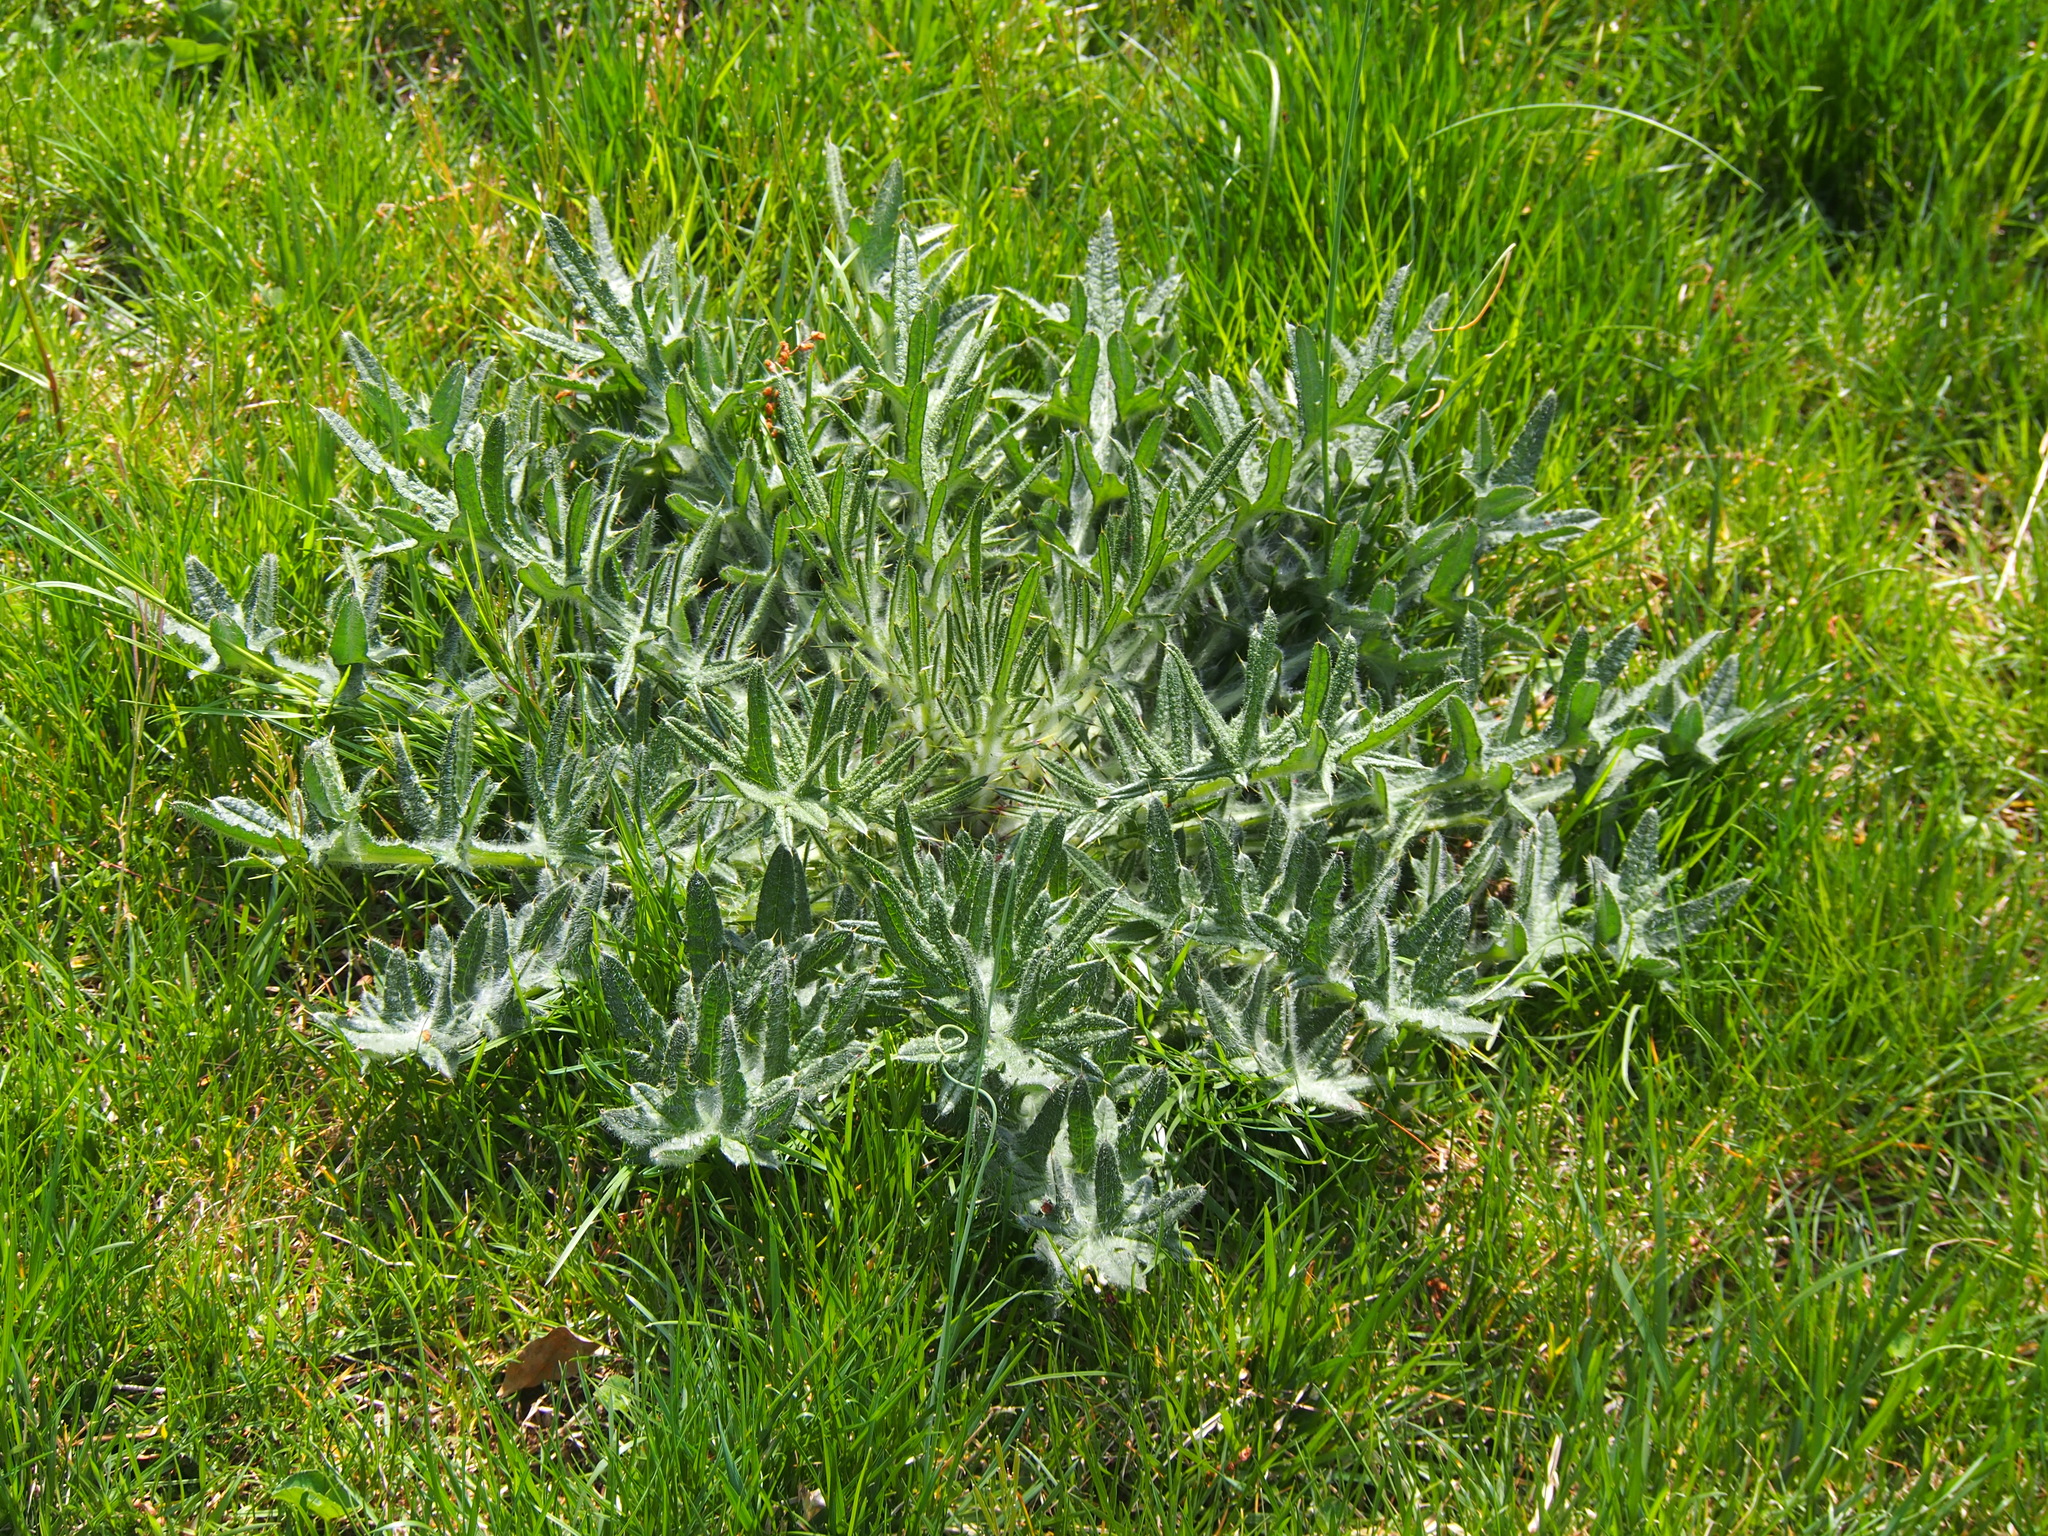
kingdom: Plantae
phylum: Tracheophyta
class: Magnoliopsida
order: Asterales
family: Asteraceae
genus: Cirsium
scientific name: Cirsium vulgare
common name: Bull thistle
